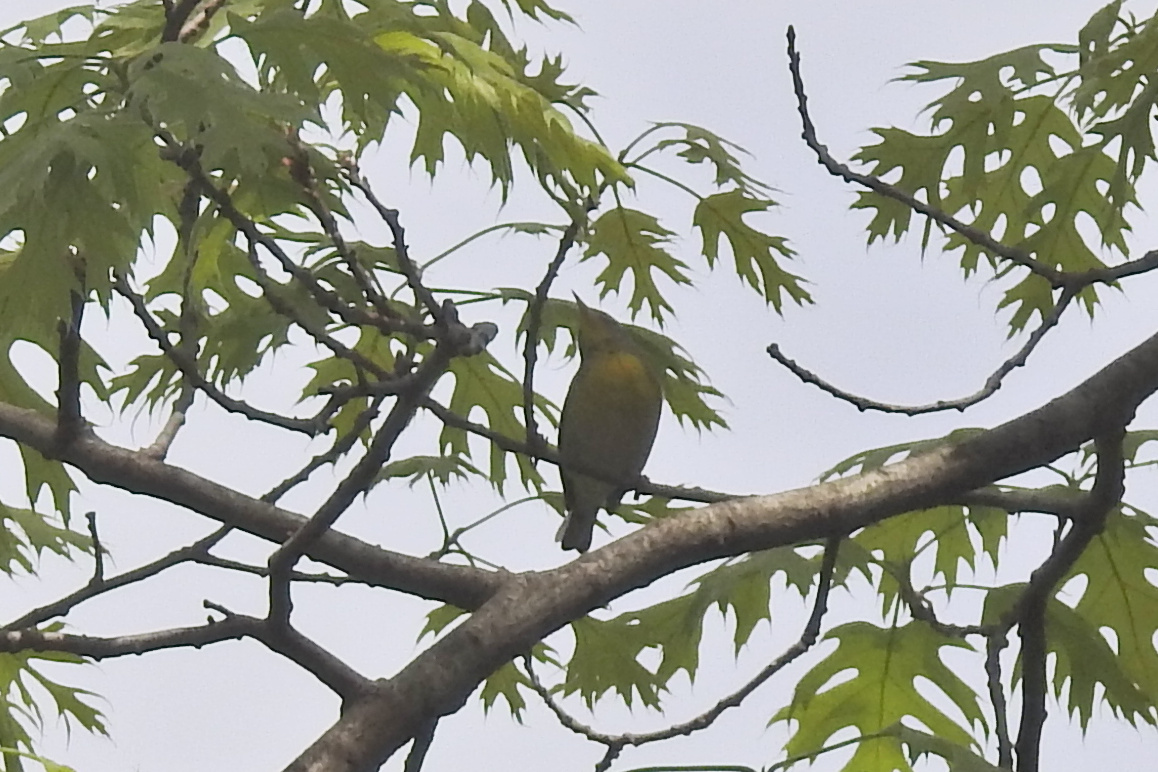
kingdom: Animalia
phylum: Chordata
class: Aves
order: Passeriformes
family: Parulidae
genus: Setophaga
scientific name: Setophaga americana
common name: Northern parula
